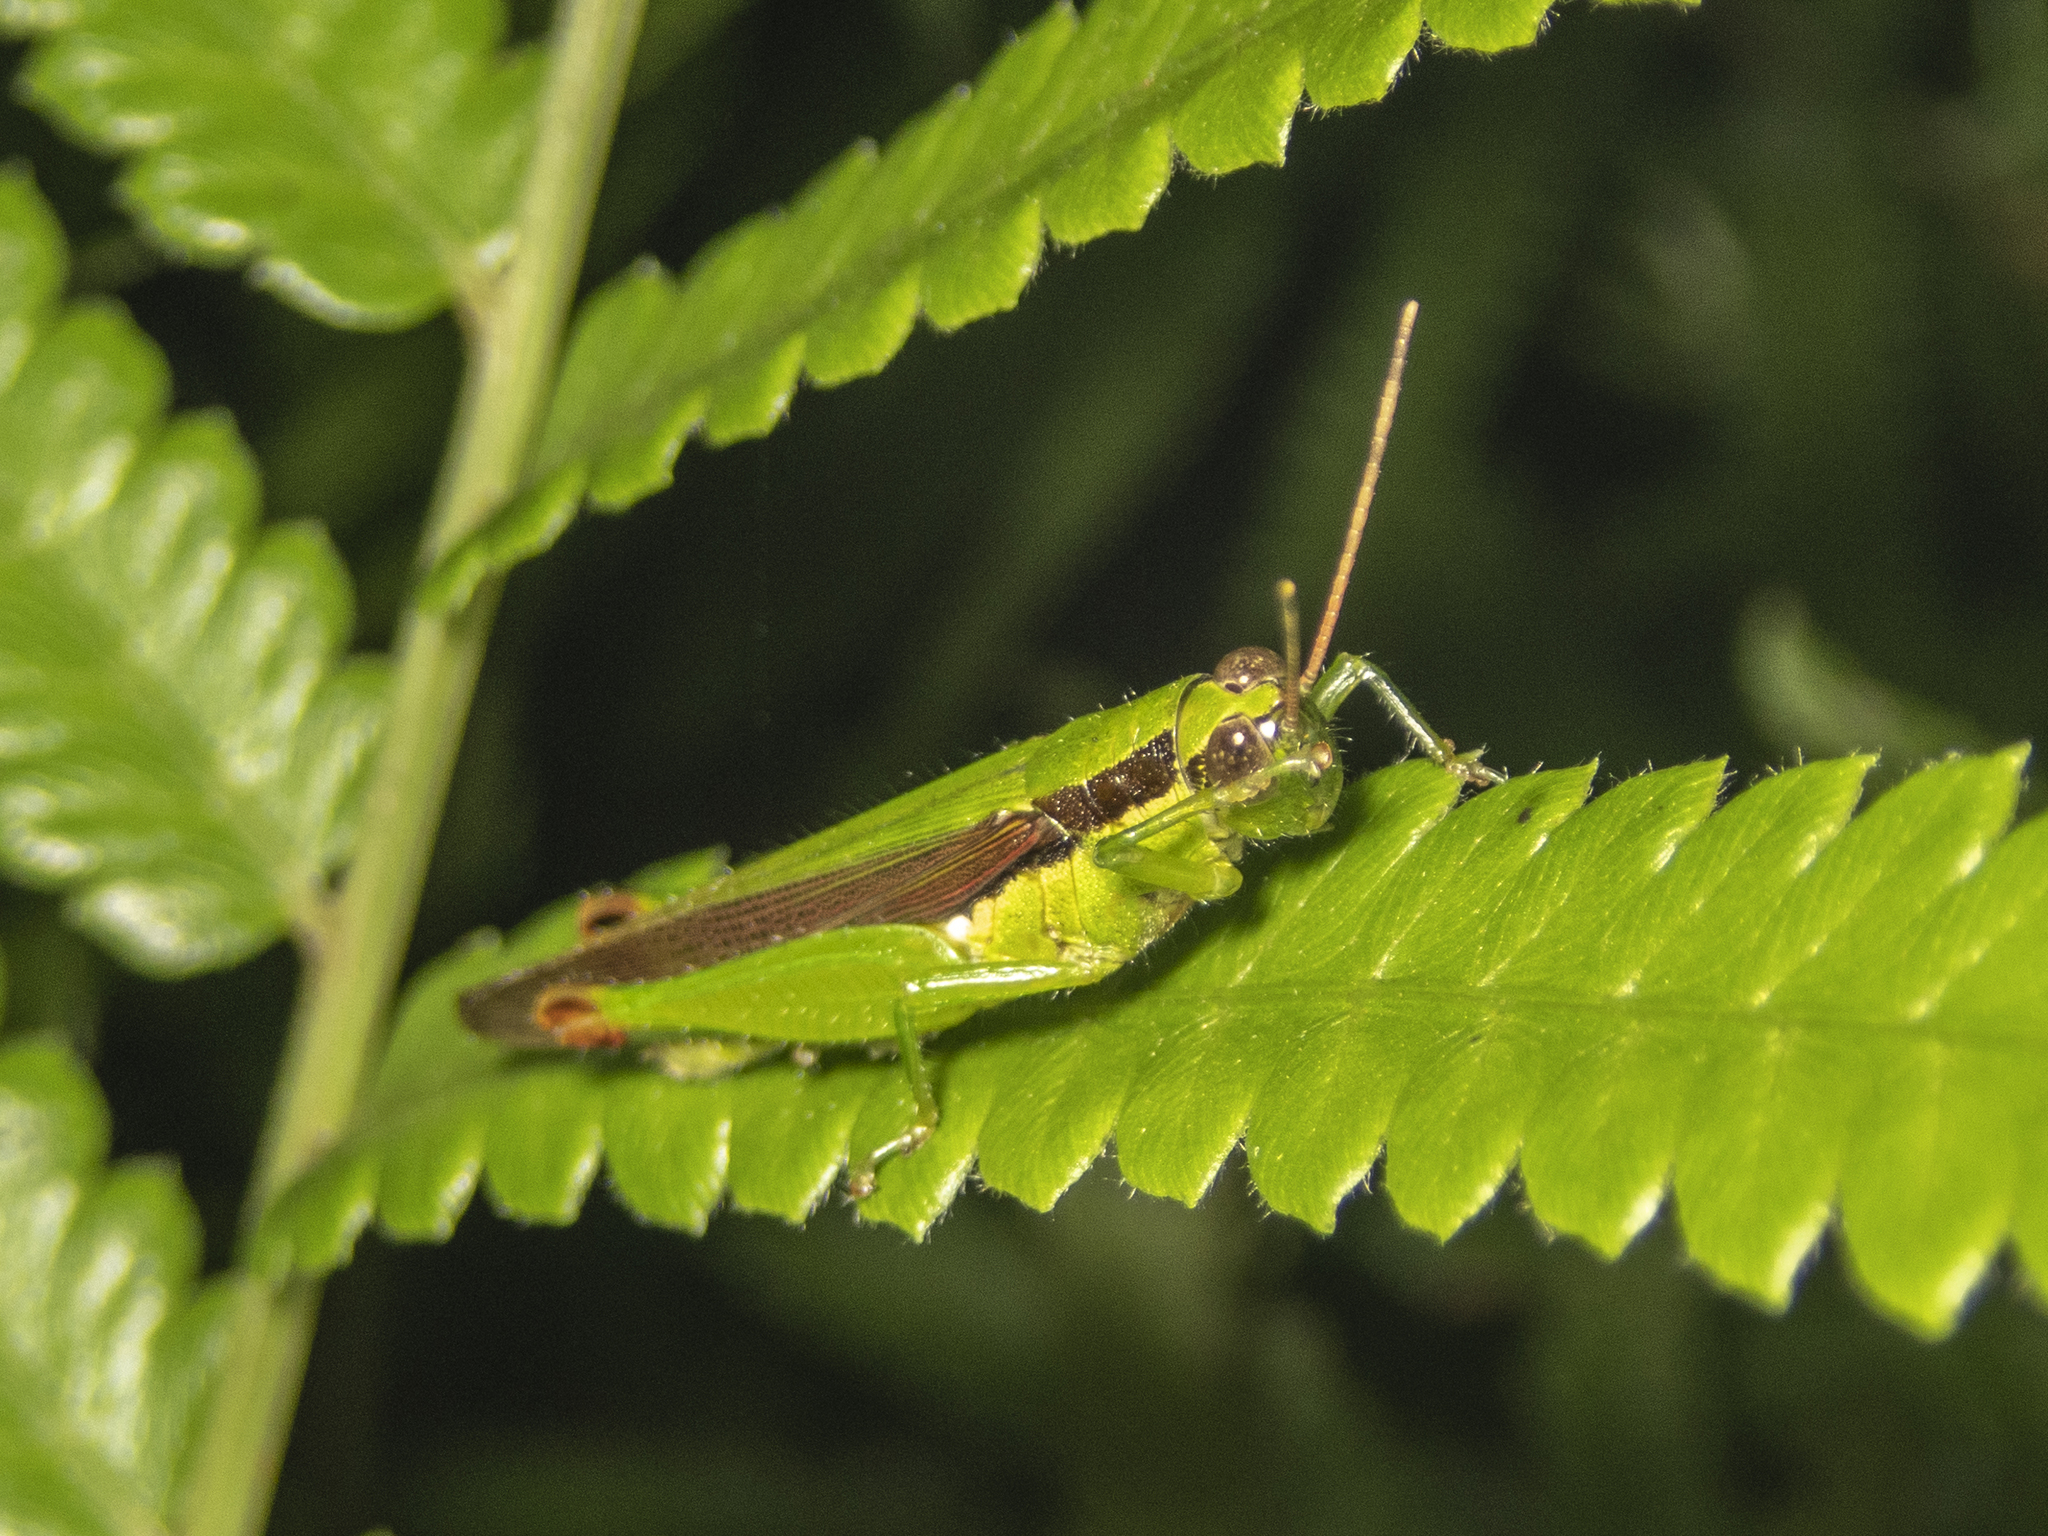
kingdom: Animalia
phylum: Arthropoda
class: Insecta
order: Orthoptera
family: Acrididae
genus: Gesonula
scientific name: Gesonula mundata
